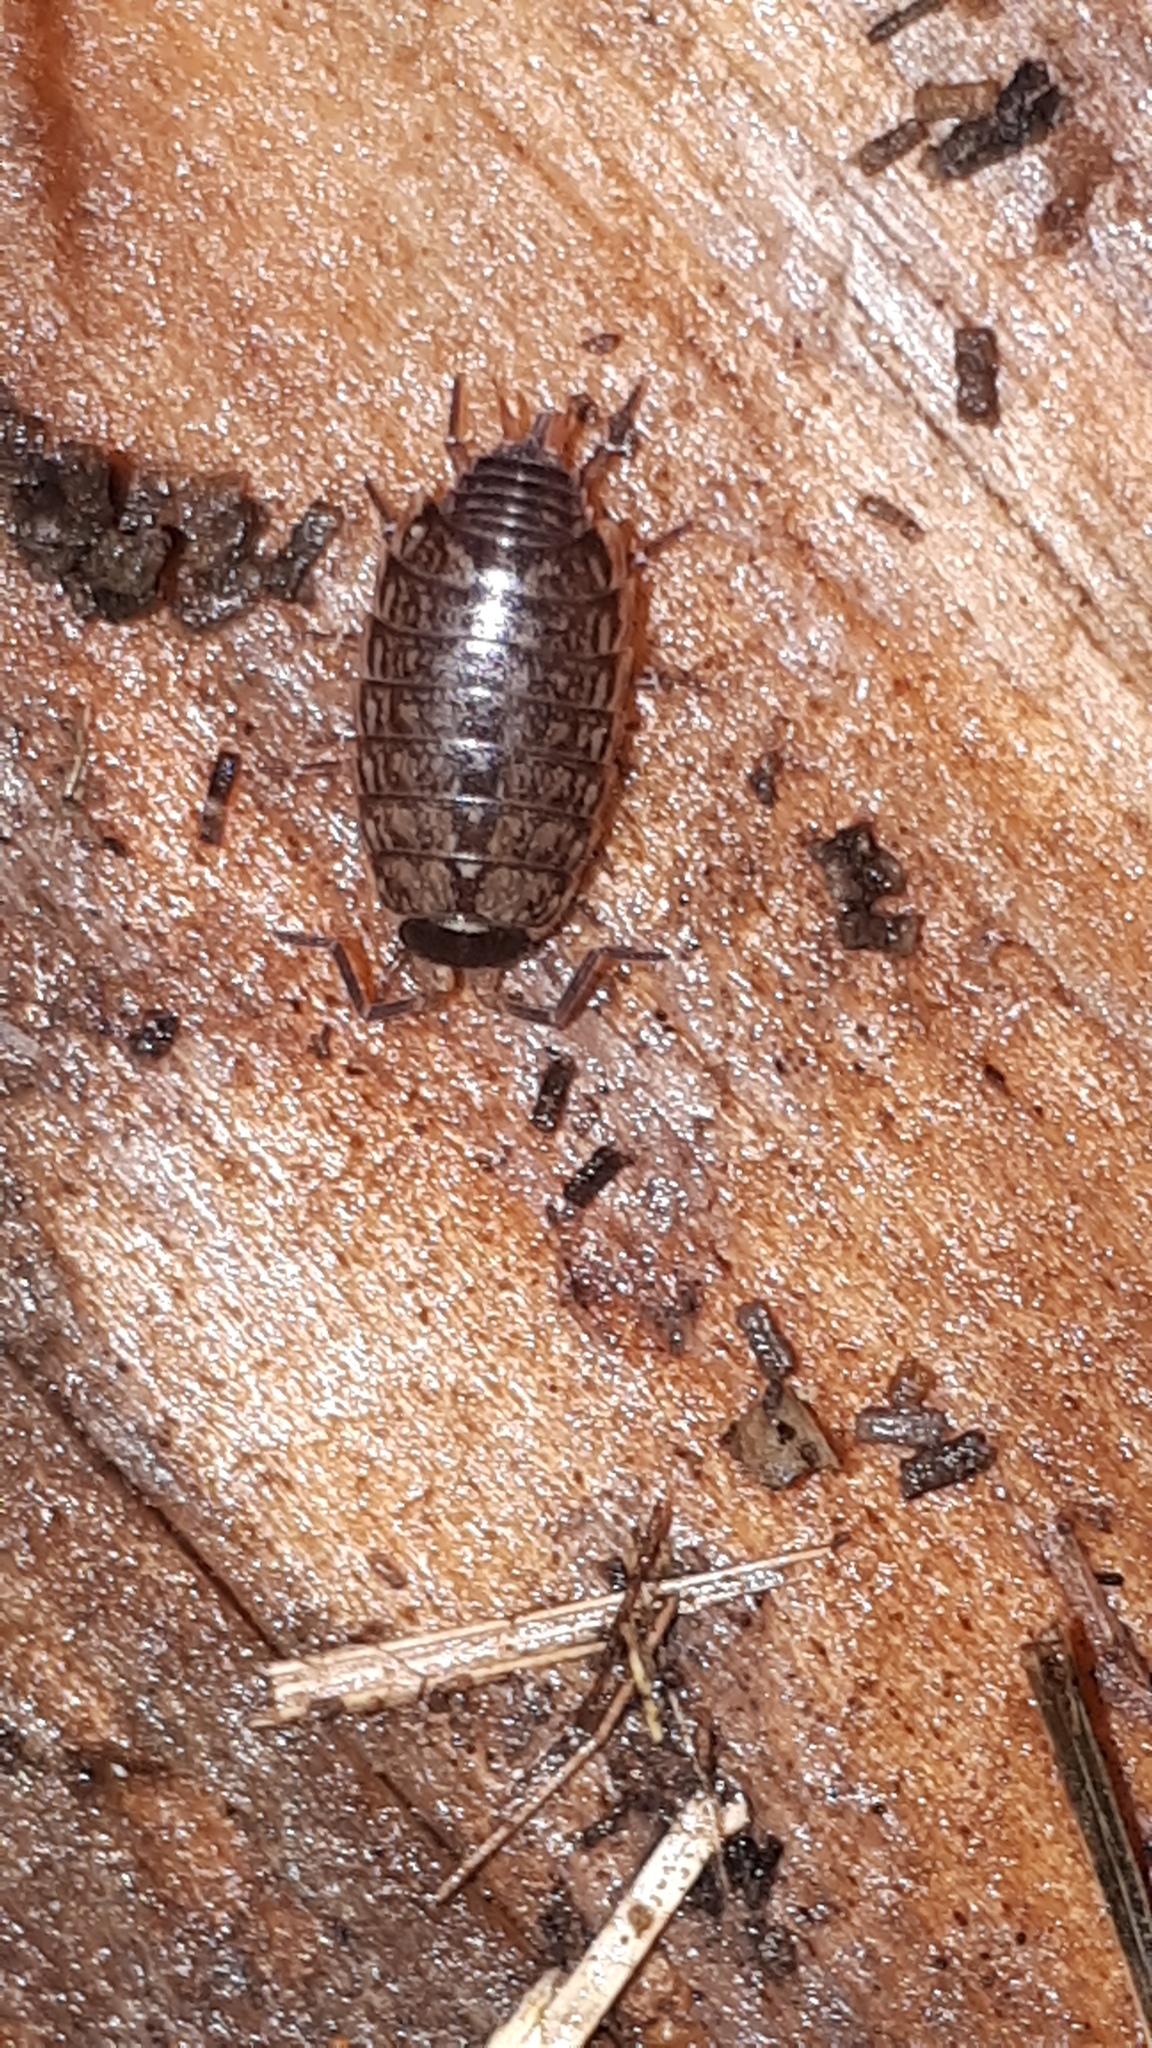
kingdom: Animalia
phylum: Arthropoda
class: Malacostraca
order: Isopoda
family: Philosciidae
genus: Philoscia
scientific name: Philoscia muscorum
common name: Common striped woodlouse
